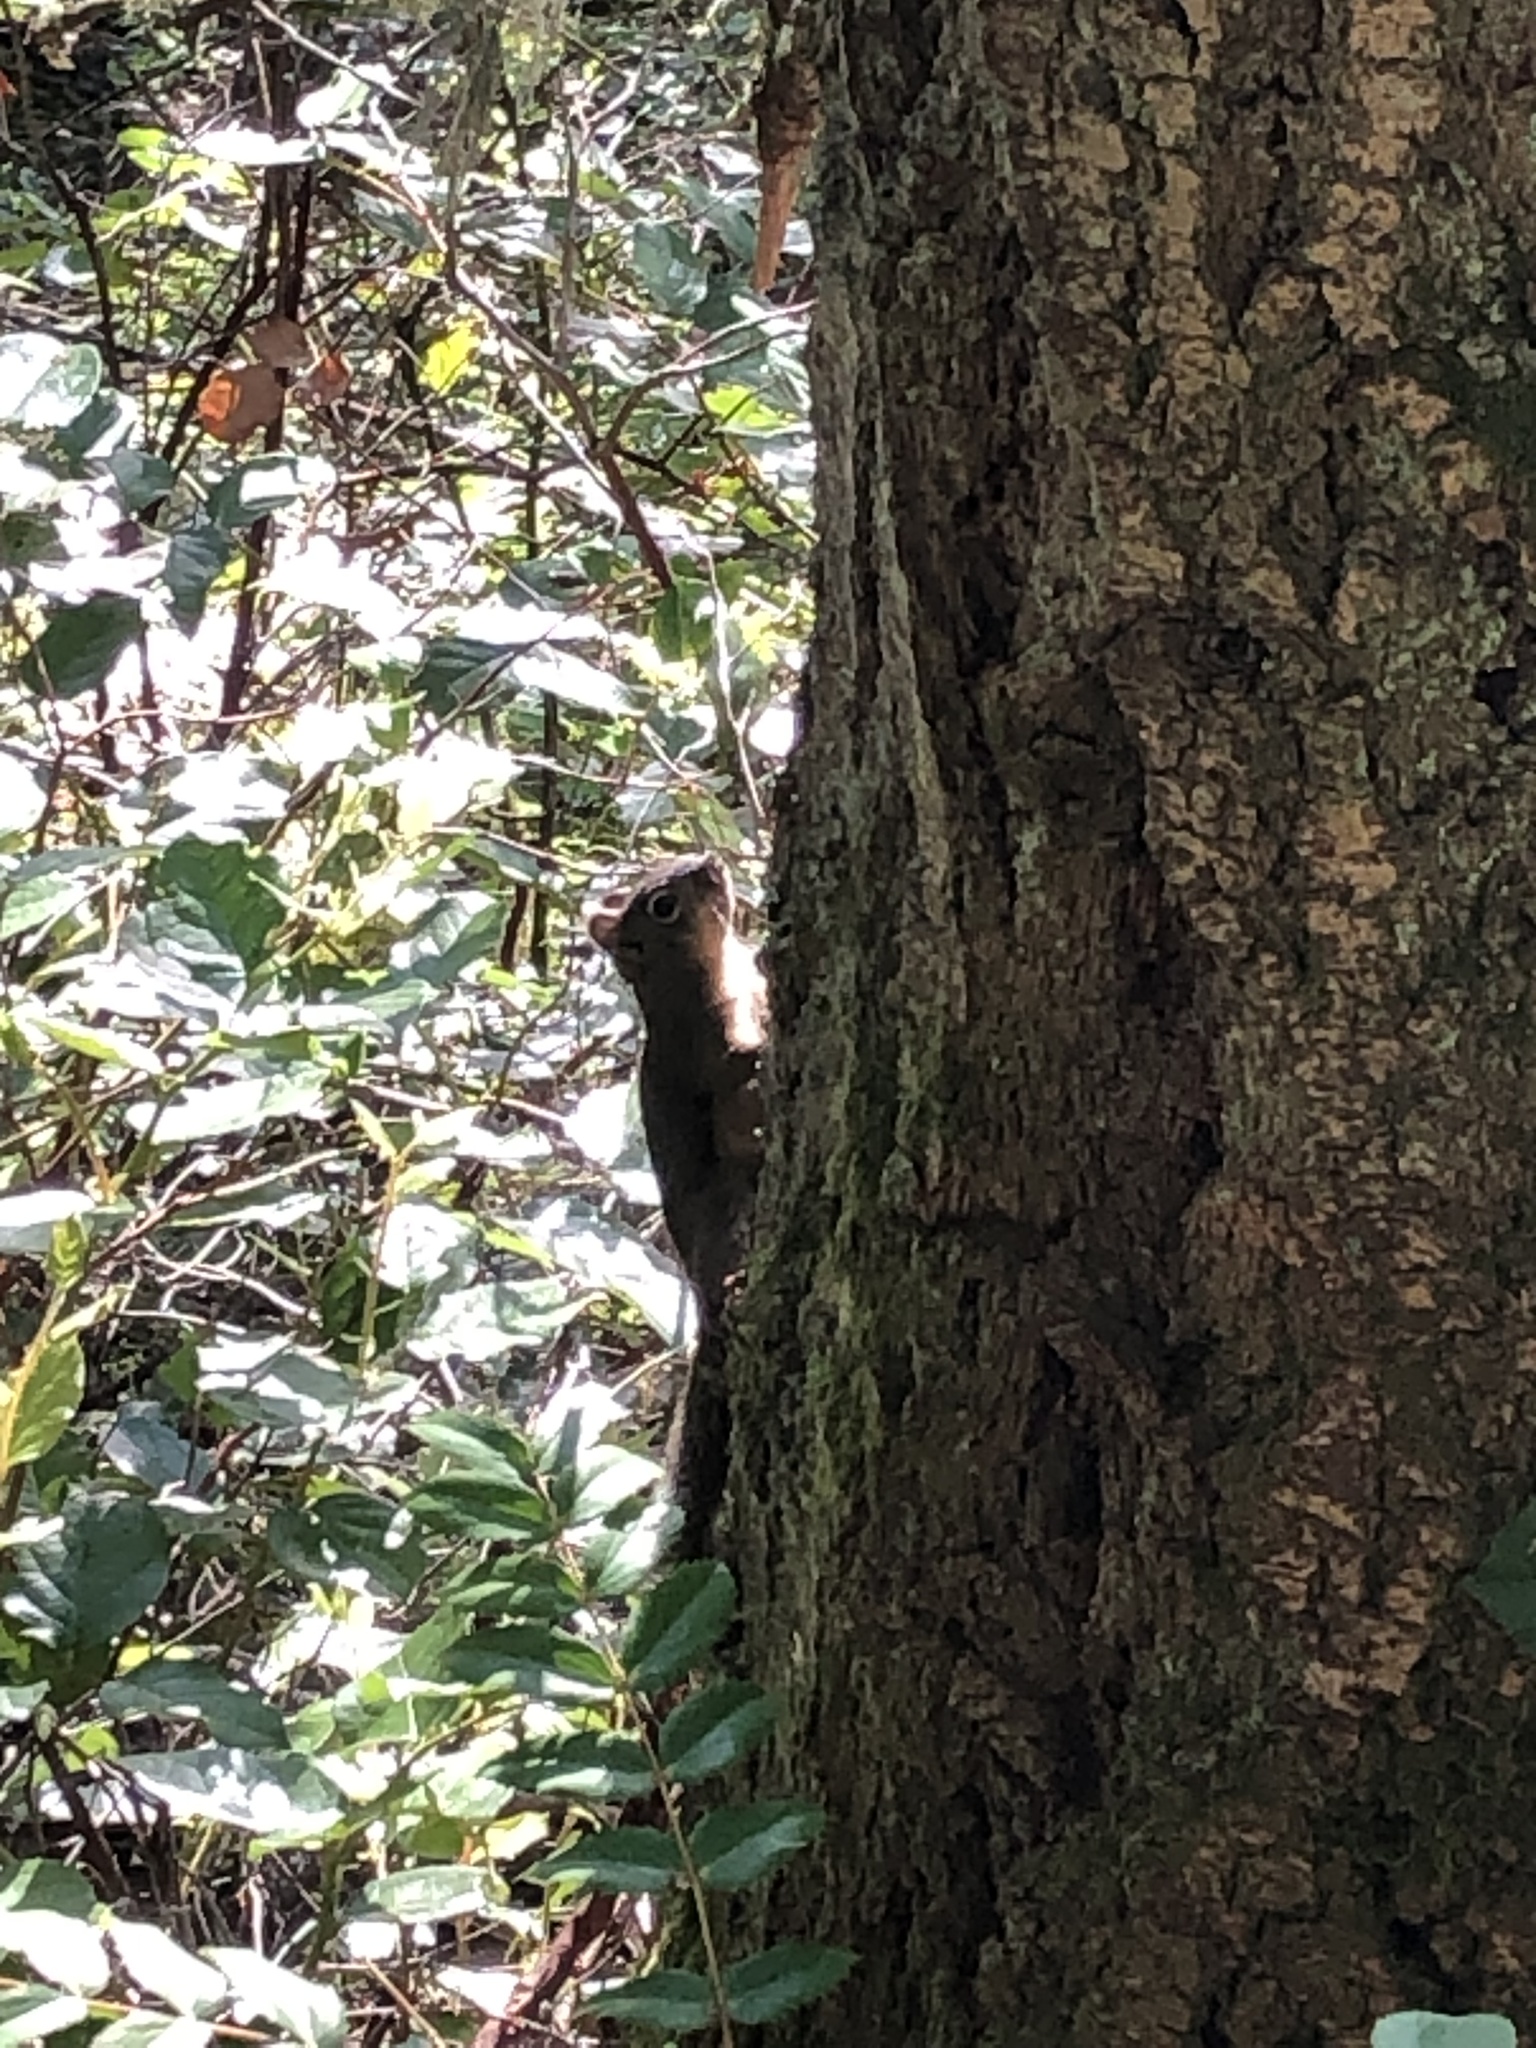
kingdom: Animalia
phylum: Chordata
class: Mammalia
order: Rodentia
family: Sciuridae
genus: Tamiasciurus
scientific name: Tamiasciurus douglasii
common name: Douglas's squirrel
